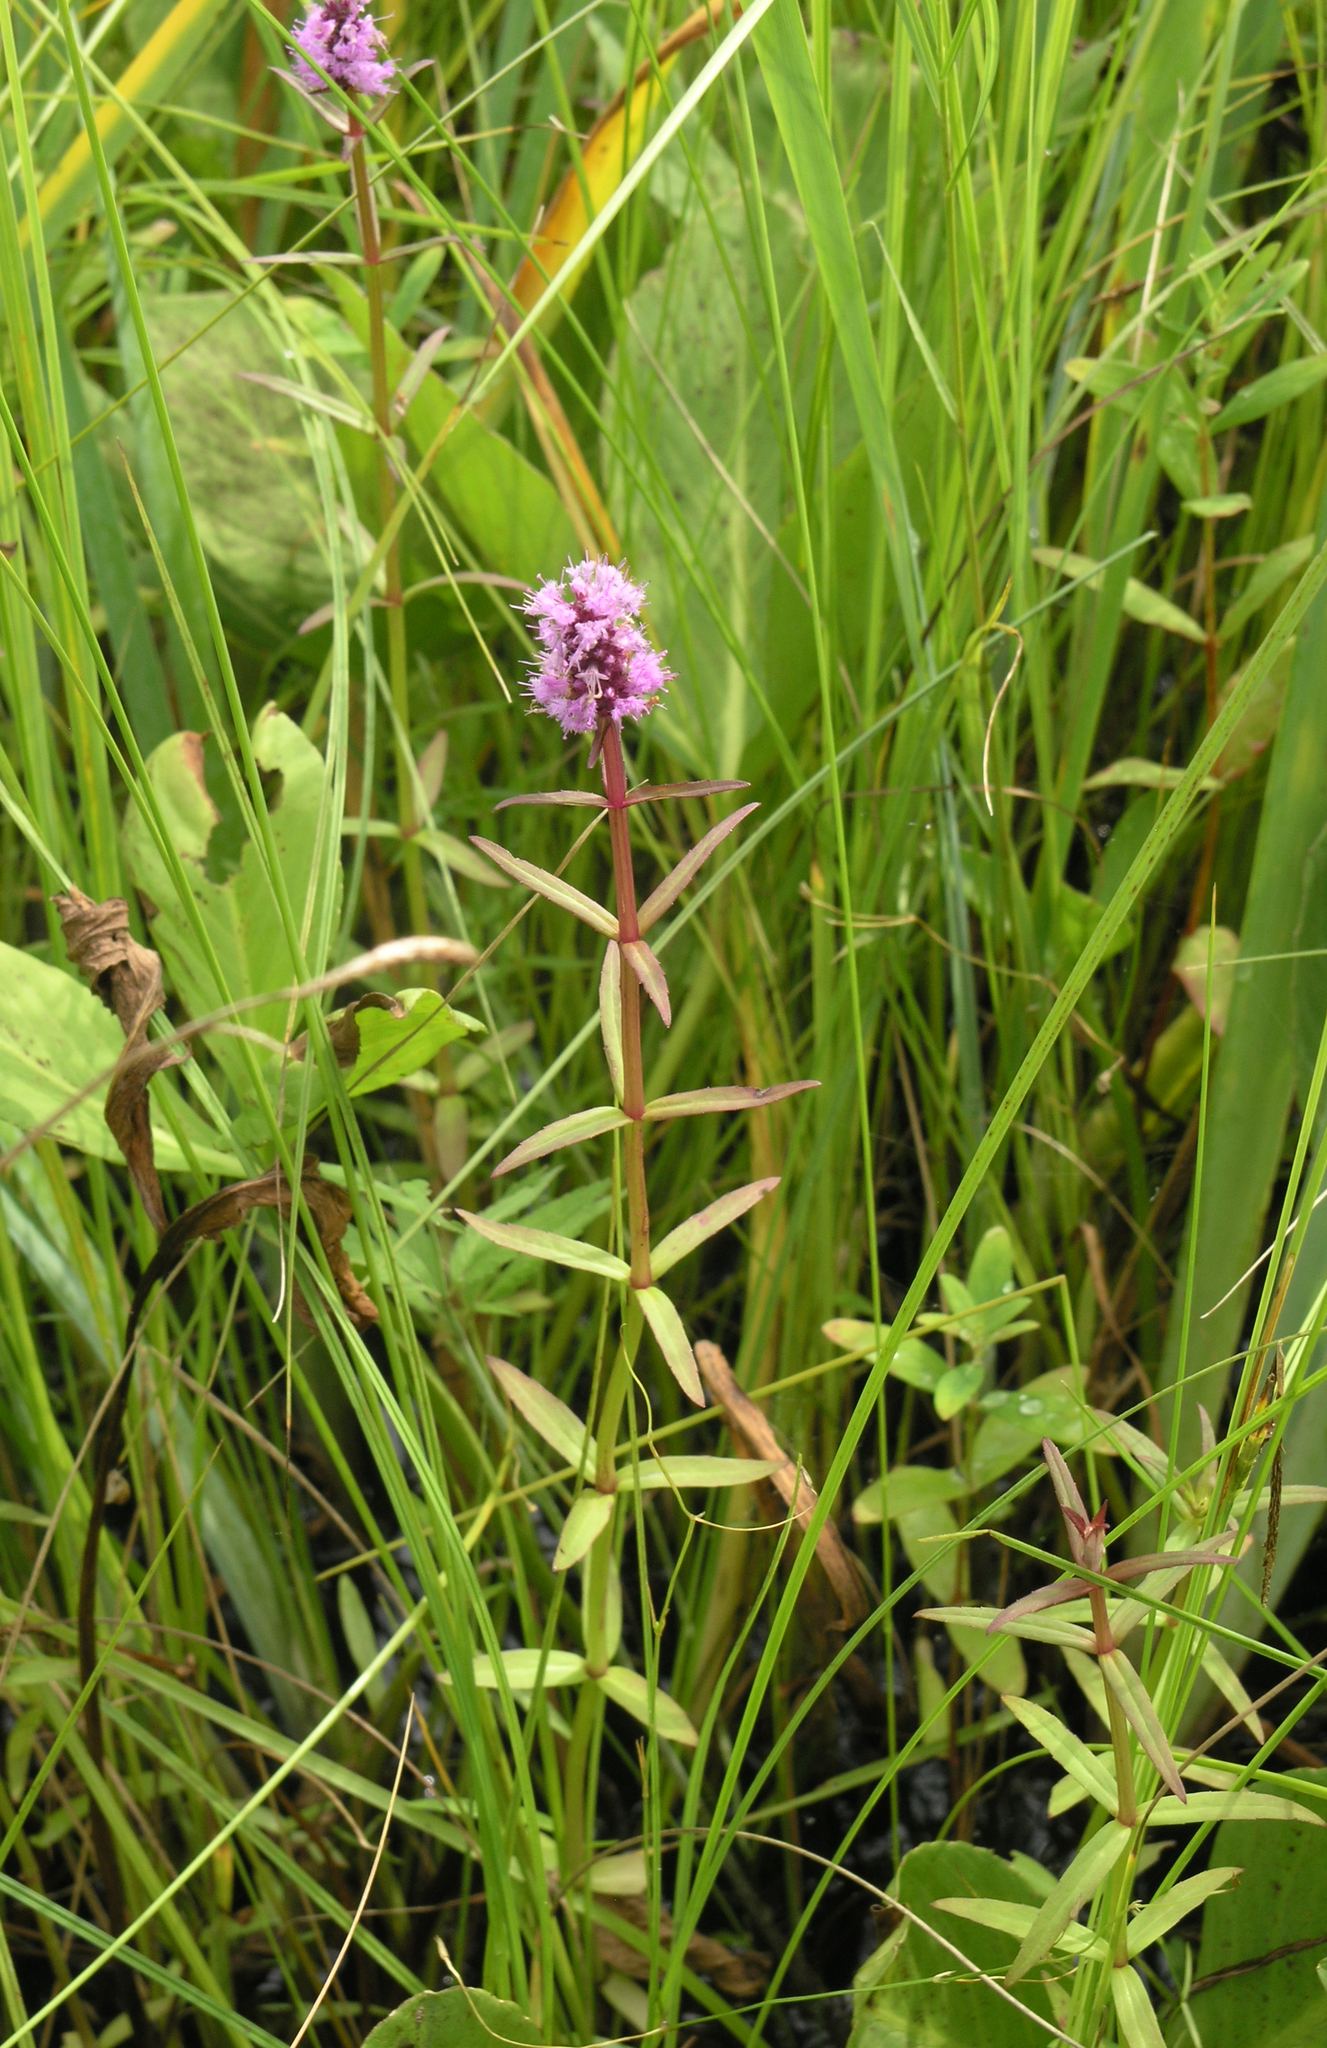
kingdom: Plantae
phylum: Tracheophyta
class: Magnoliopsida
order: Lamiales
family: Lamiaceae
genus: Pogostemon
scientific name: Pogostemon yatabeanus
